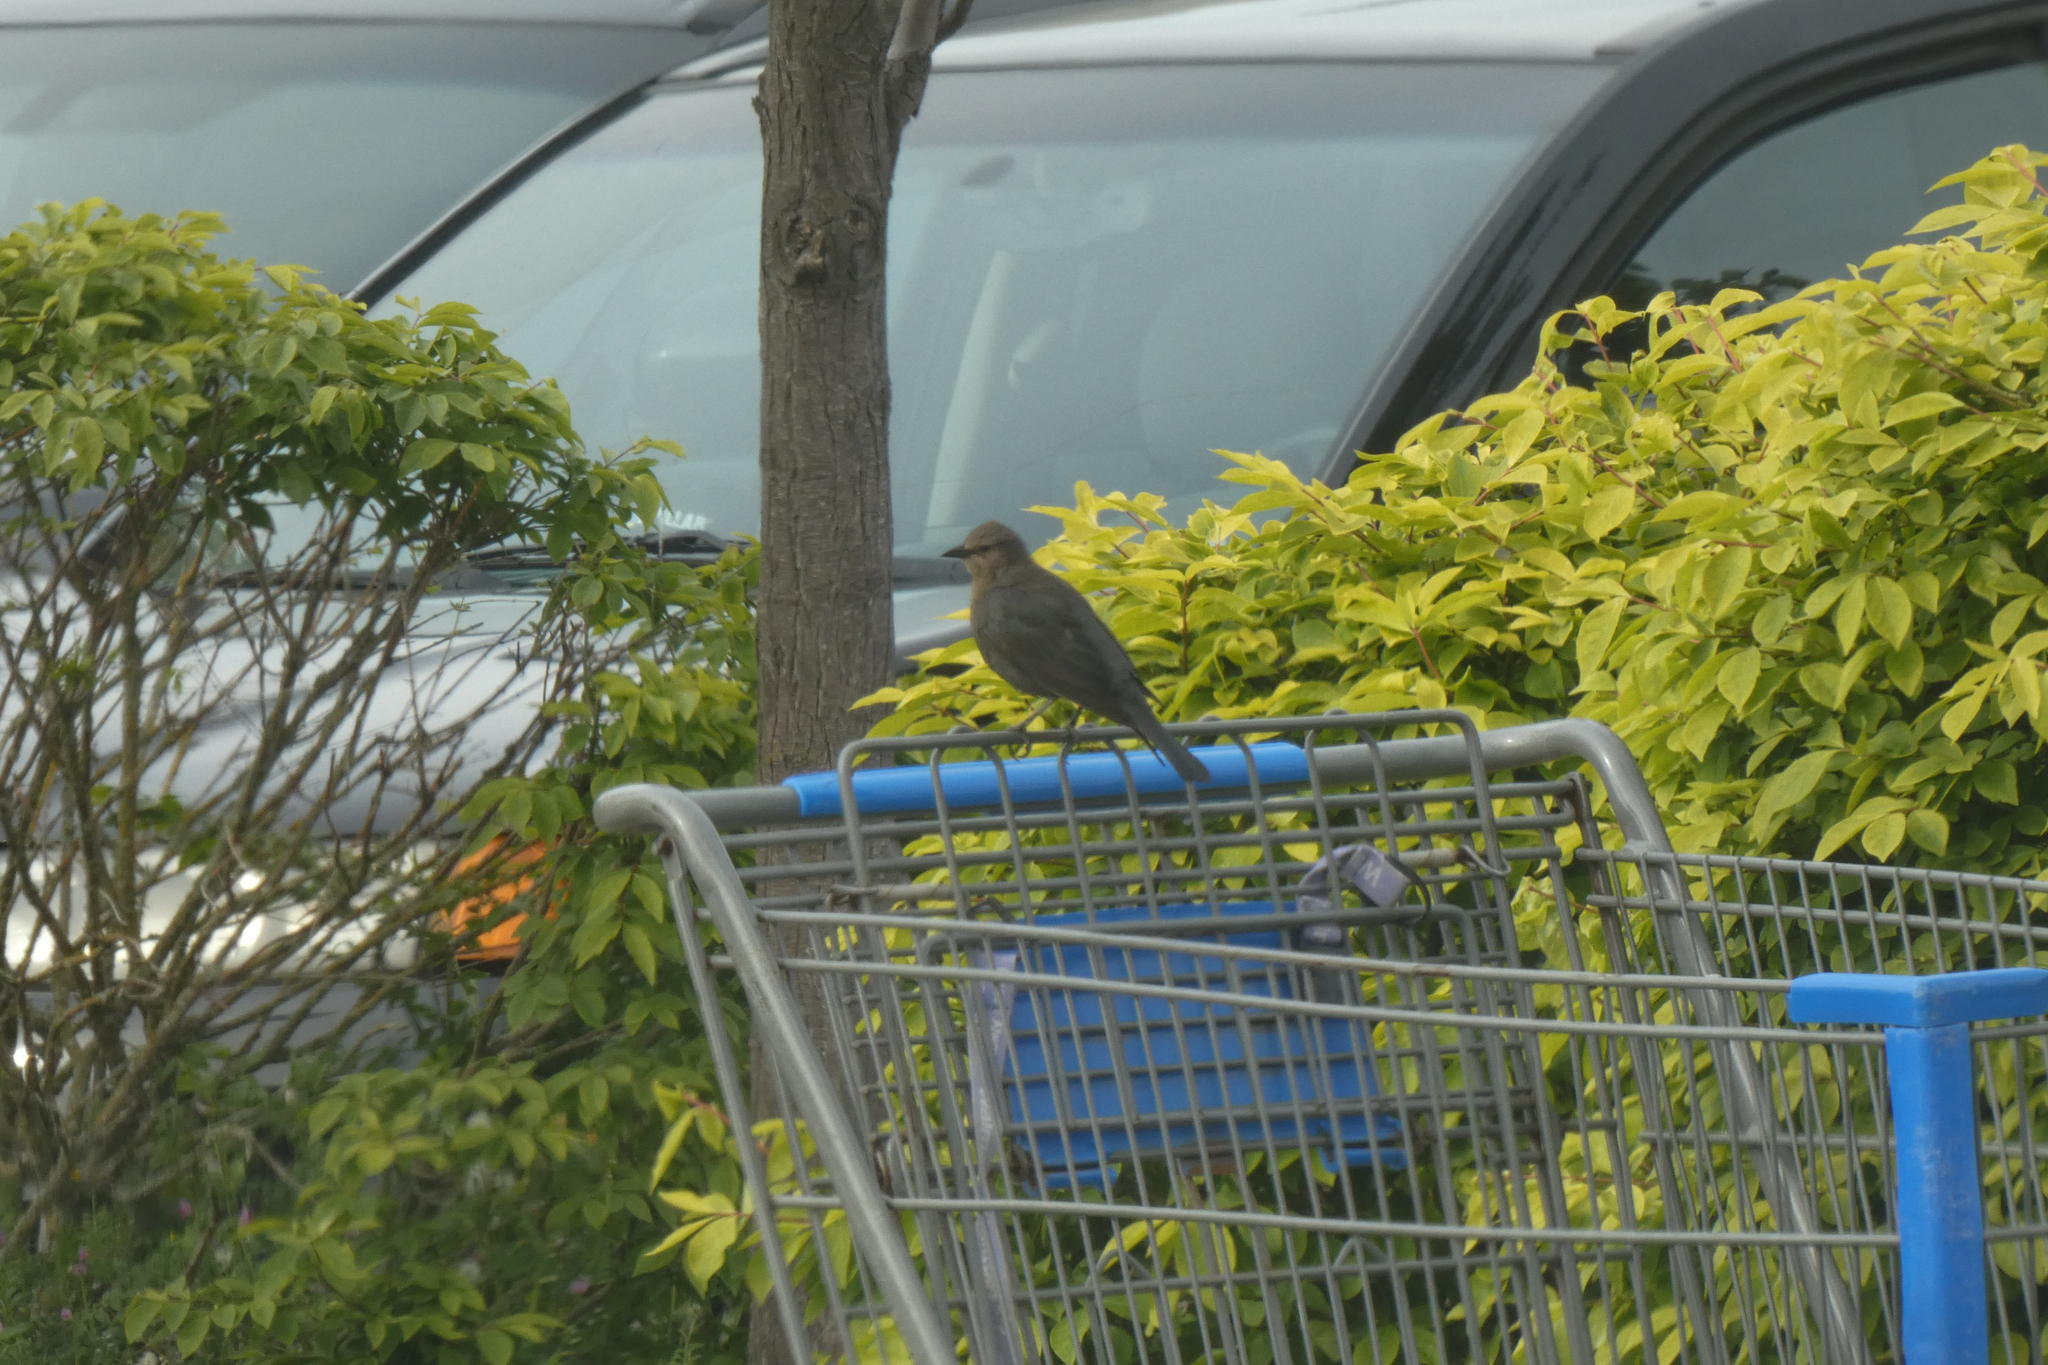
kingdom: Animalia
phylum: Chordata
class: Aves
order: Passeriformes
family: Icteridae
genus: Euphagus
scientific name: Euphagus cyanocephalus
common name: Brewer's blackbird
